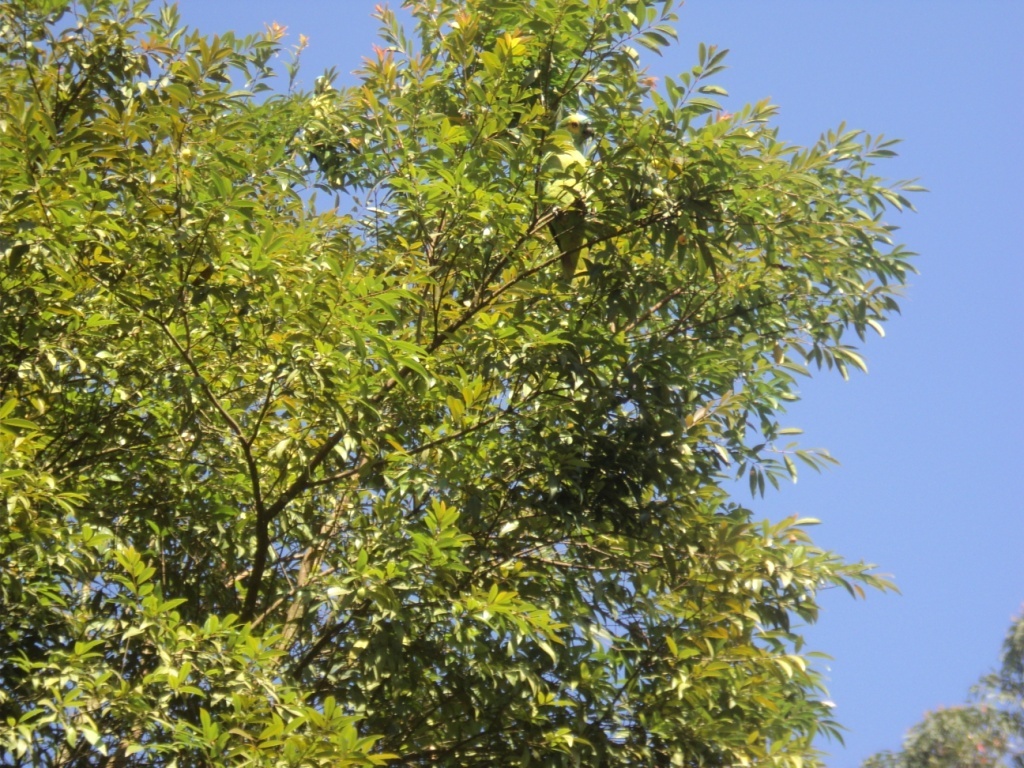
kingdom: Animalia
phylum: Chordata
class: Aves
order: Psittaciformes
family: Psittacidae
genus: Amazona
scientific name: Amazona aestiva
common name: Turquoise-fronted amazon
